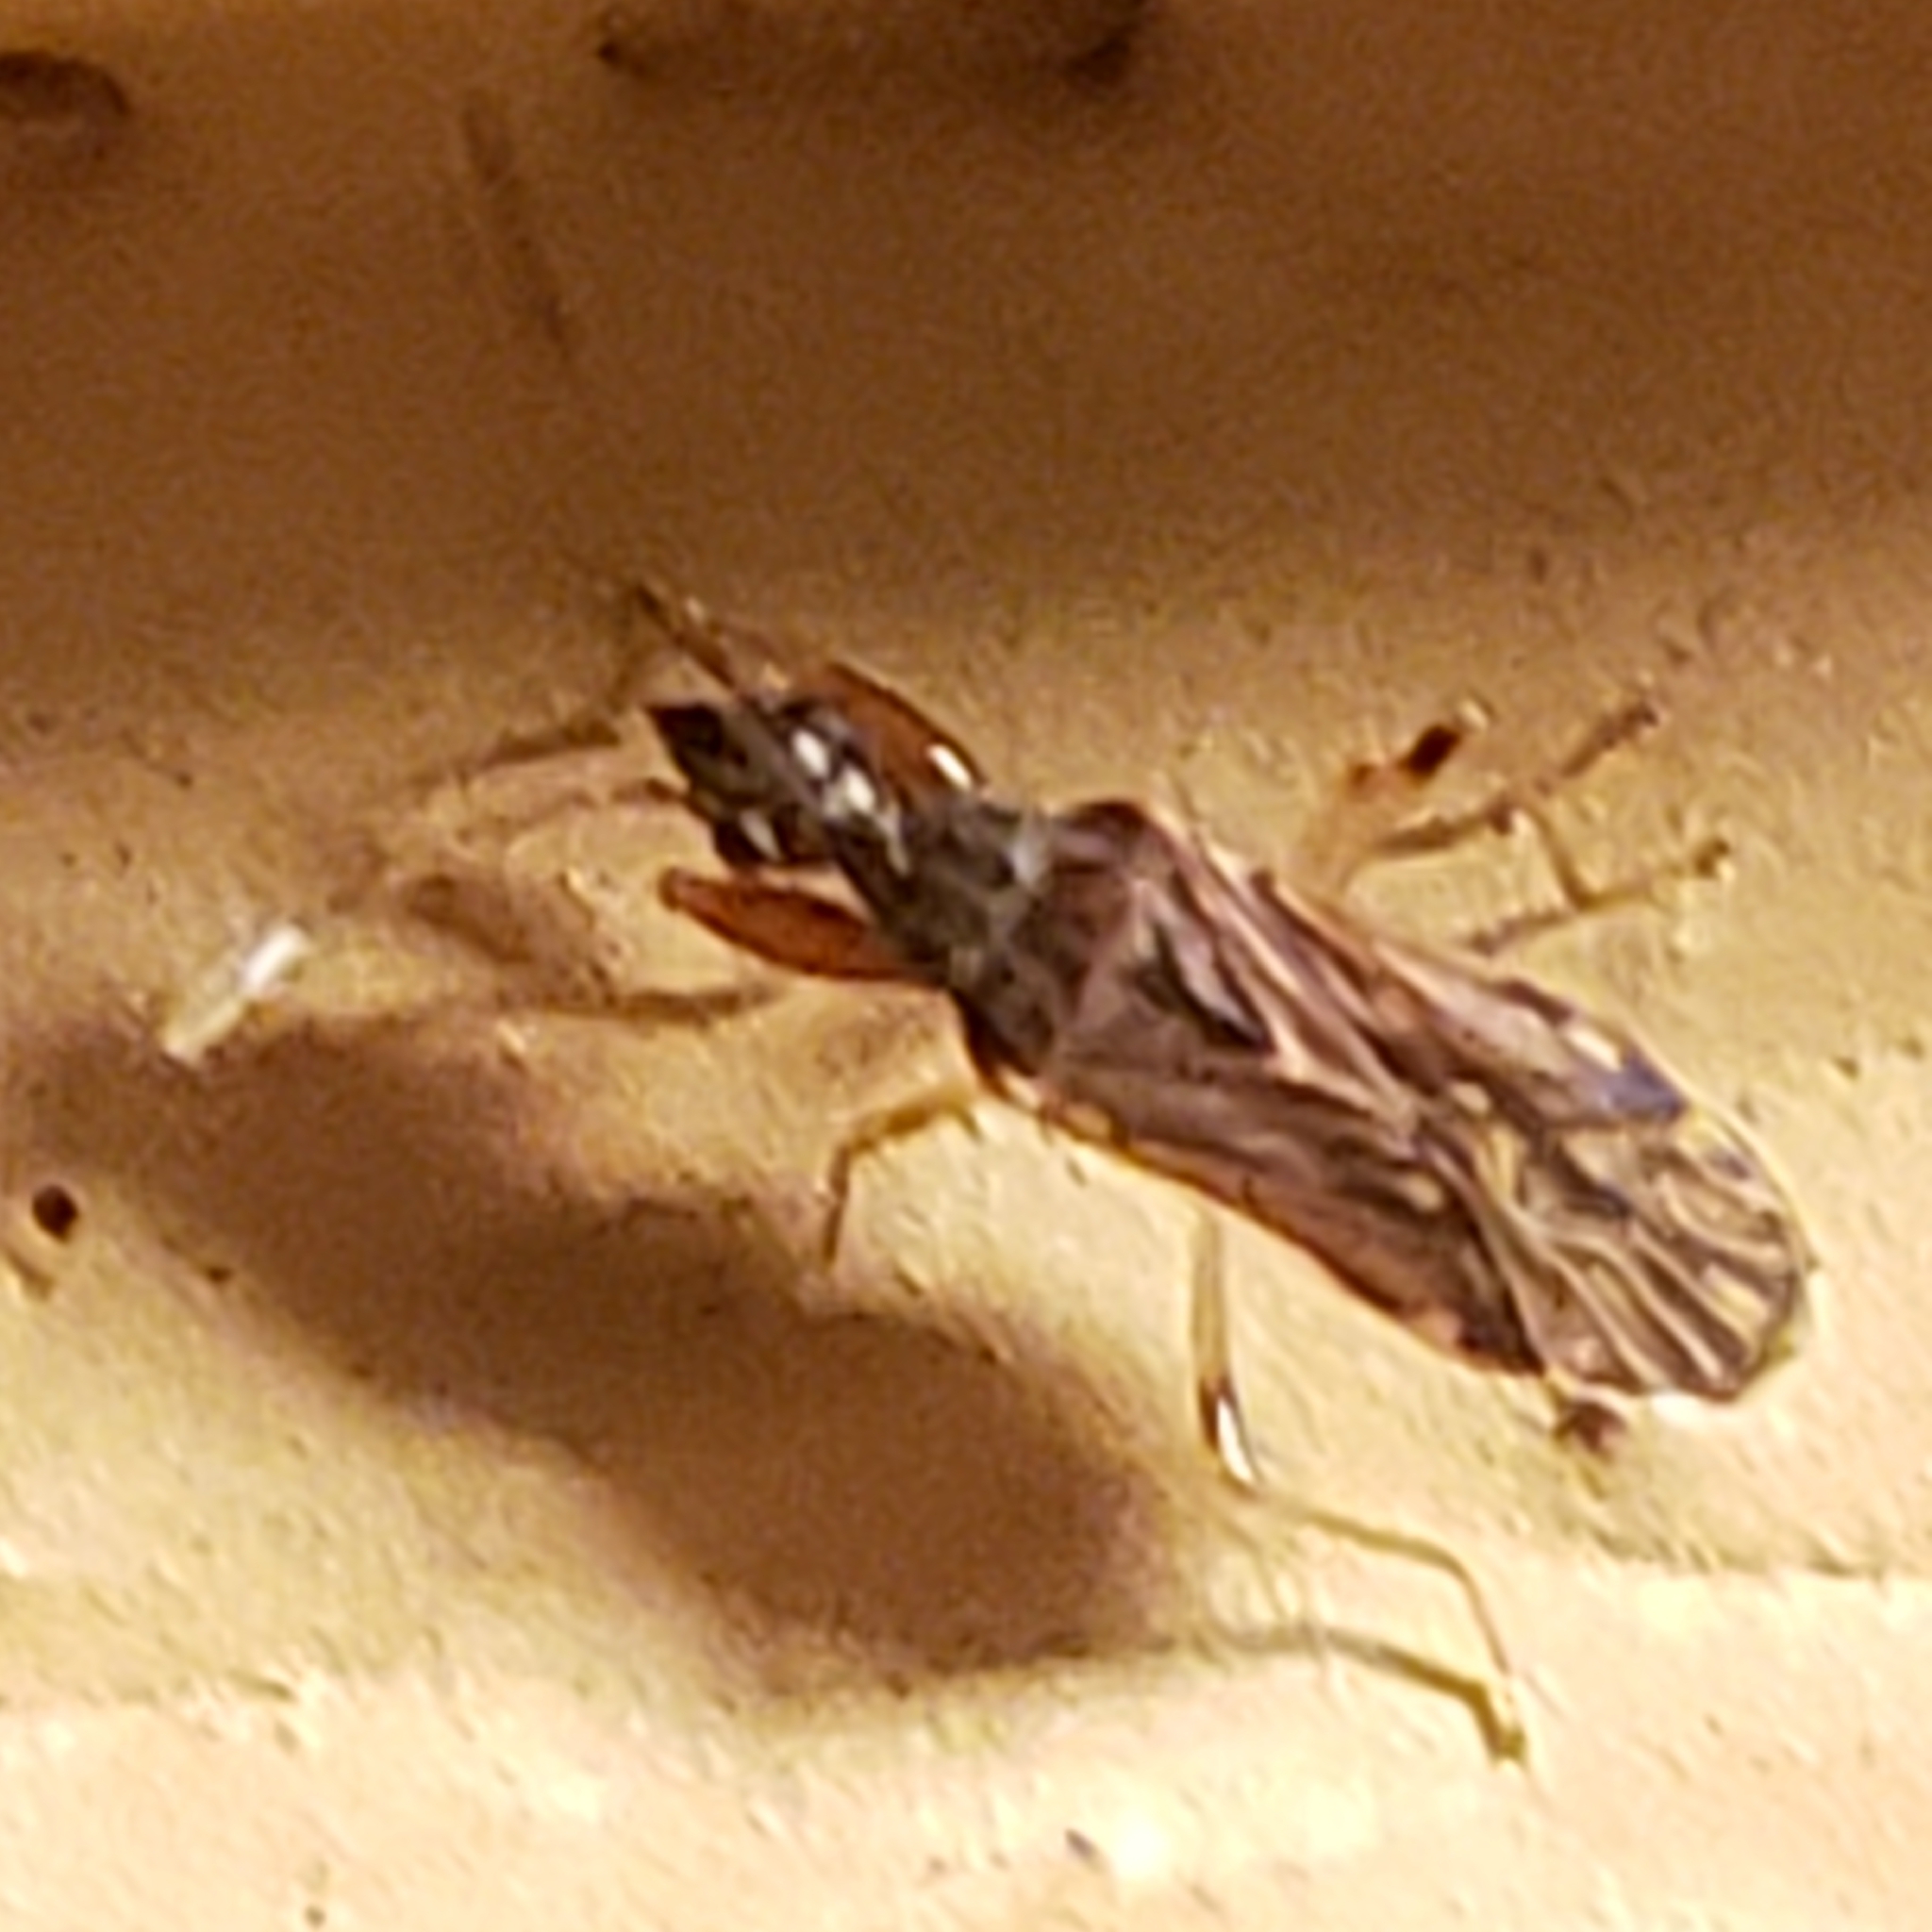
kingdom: Animalia
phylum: Arthropoda
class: Insecta
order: Hemiptera
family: Rhyparochromidae
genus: Heraeus
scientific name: Heraeus plebejus
